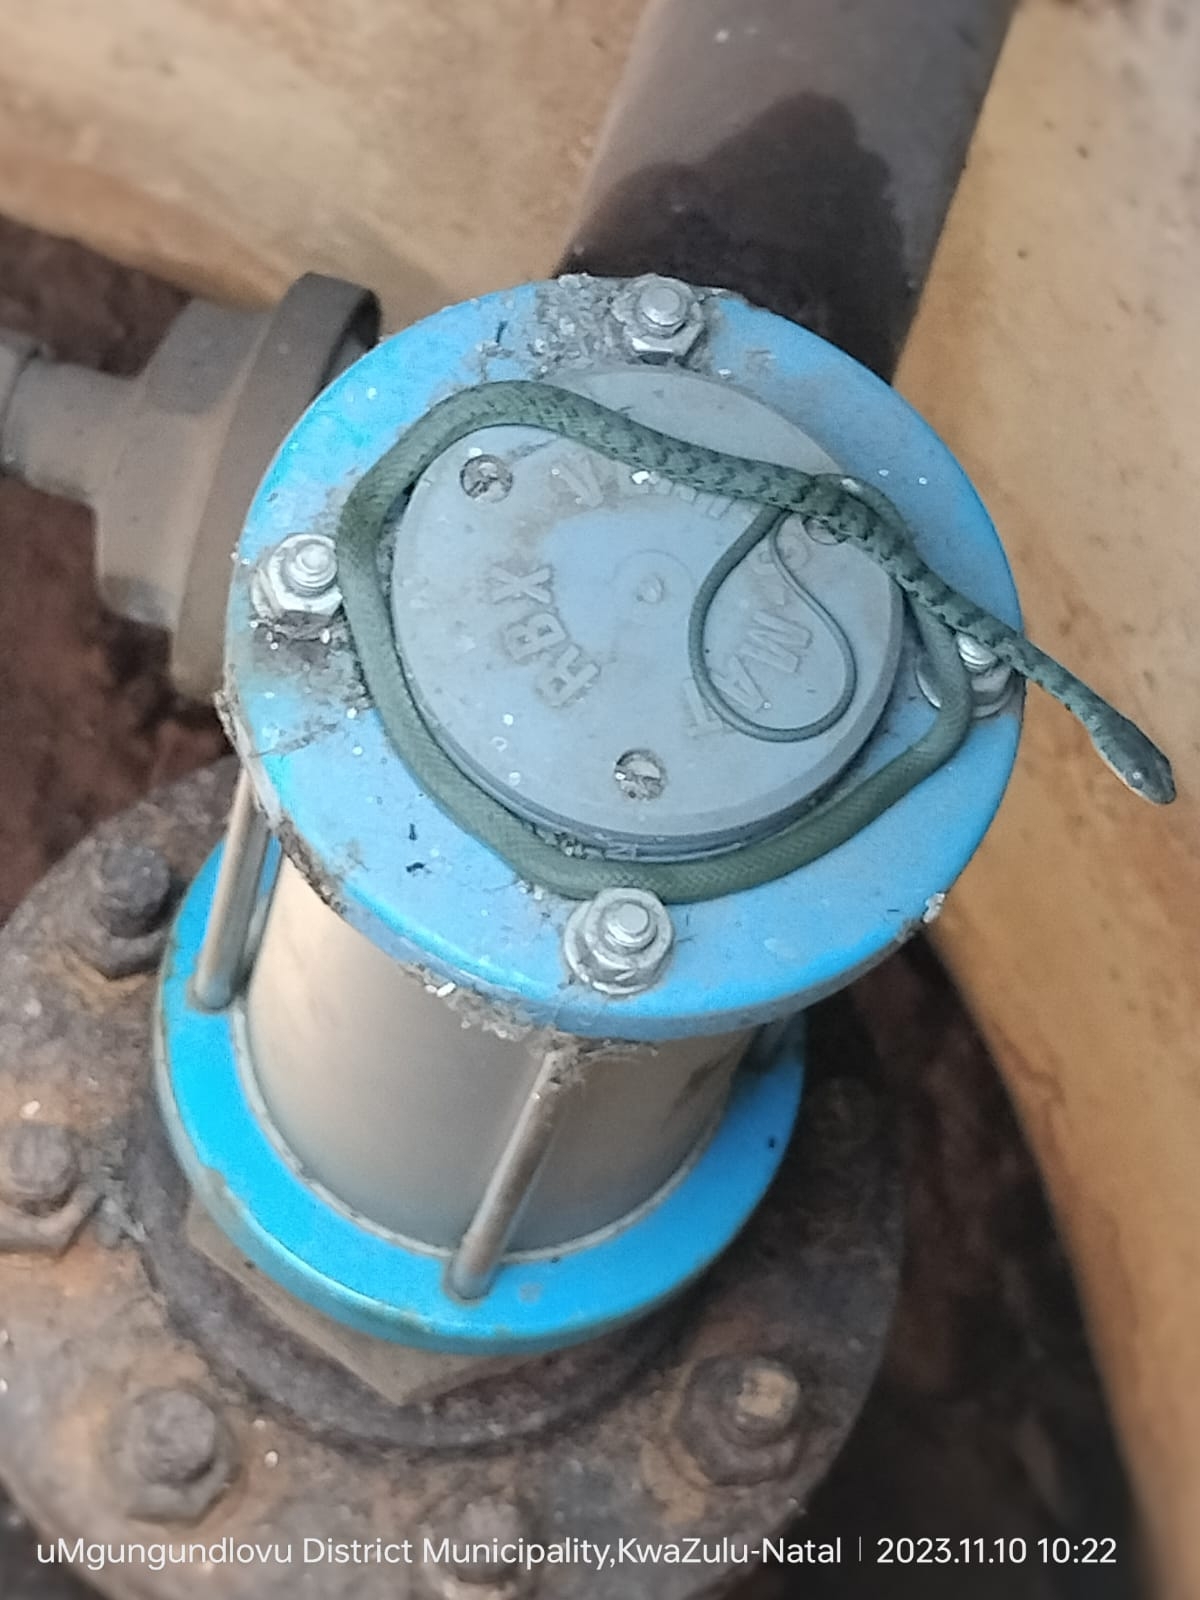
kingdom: Animalia
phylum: Chordata
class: Squamata
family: Colubridae
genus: Philothamnus
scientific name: Philothamnus semivariegatus
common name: Spotted bush snake
